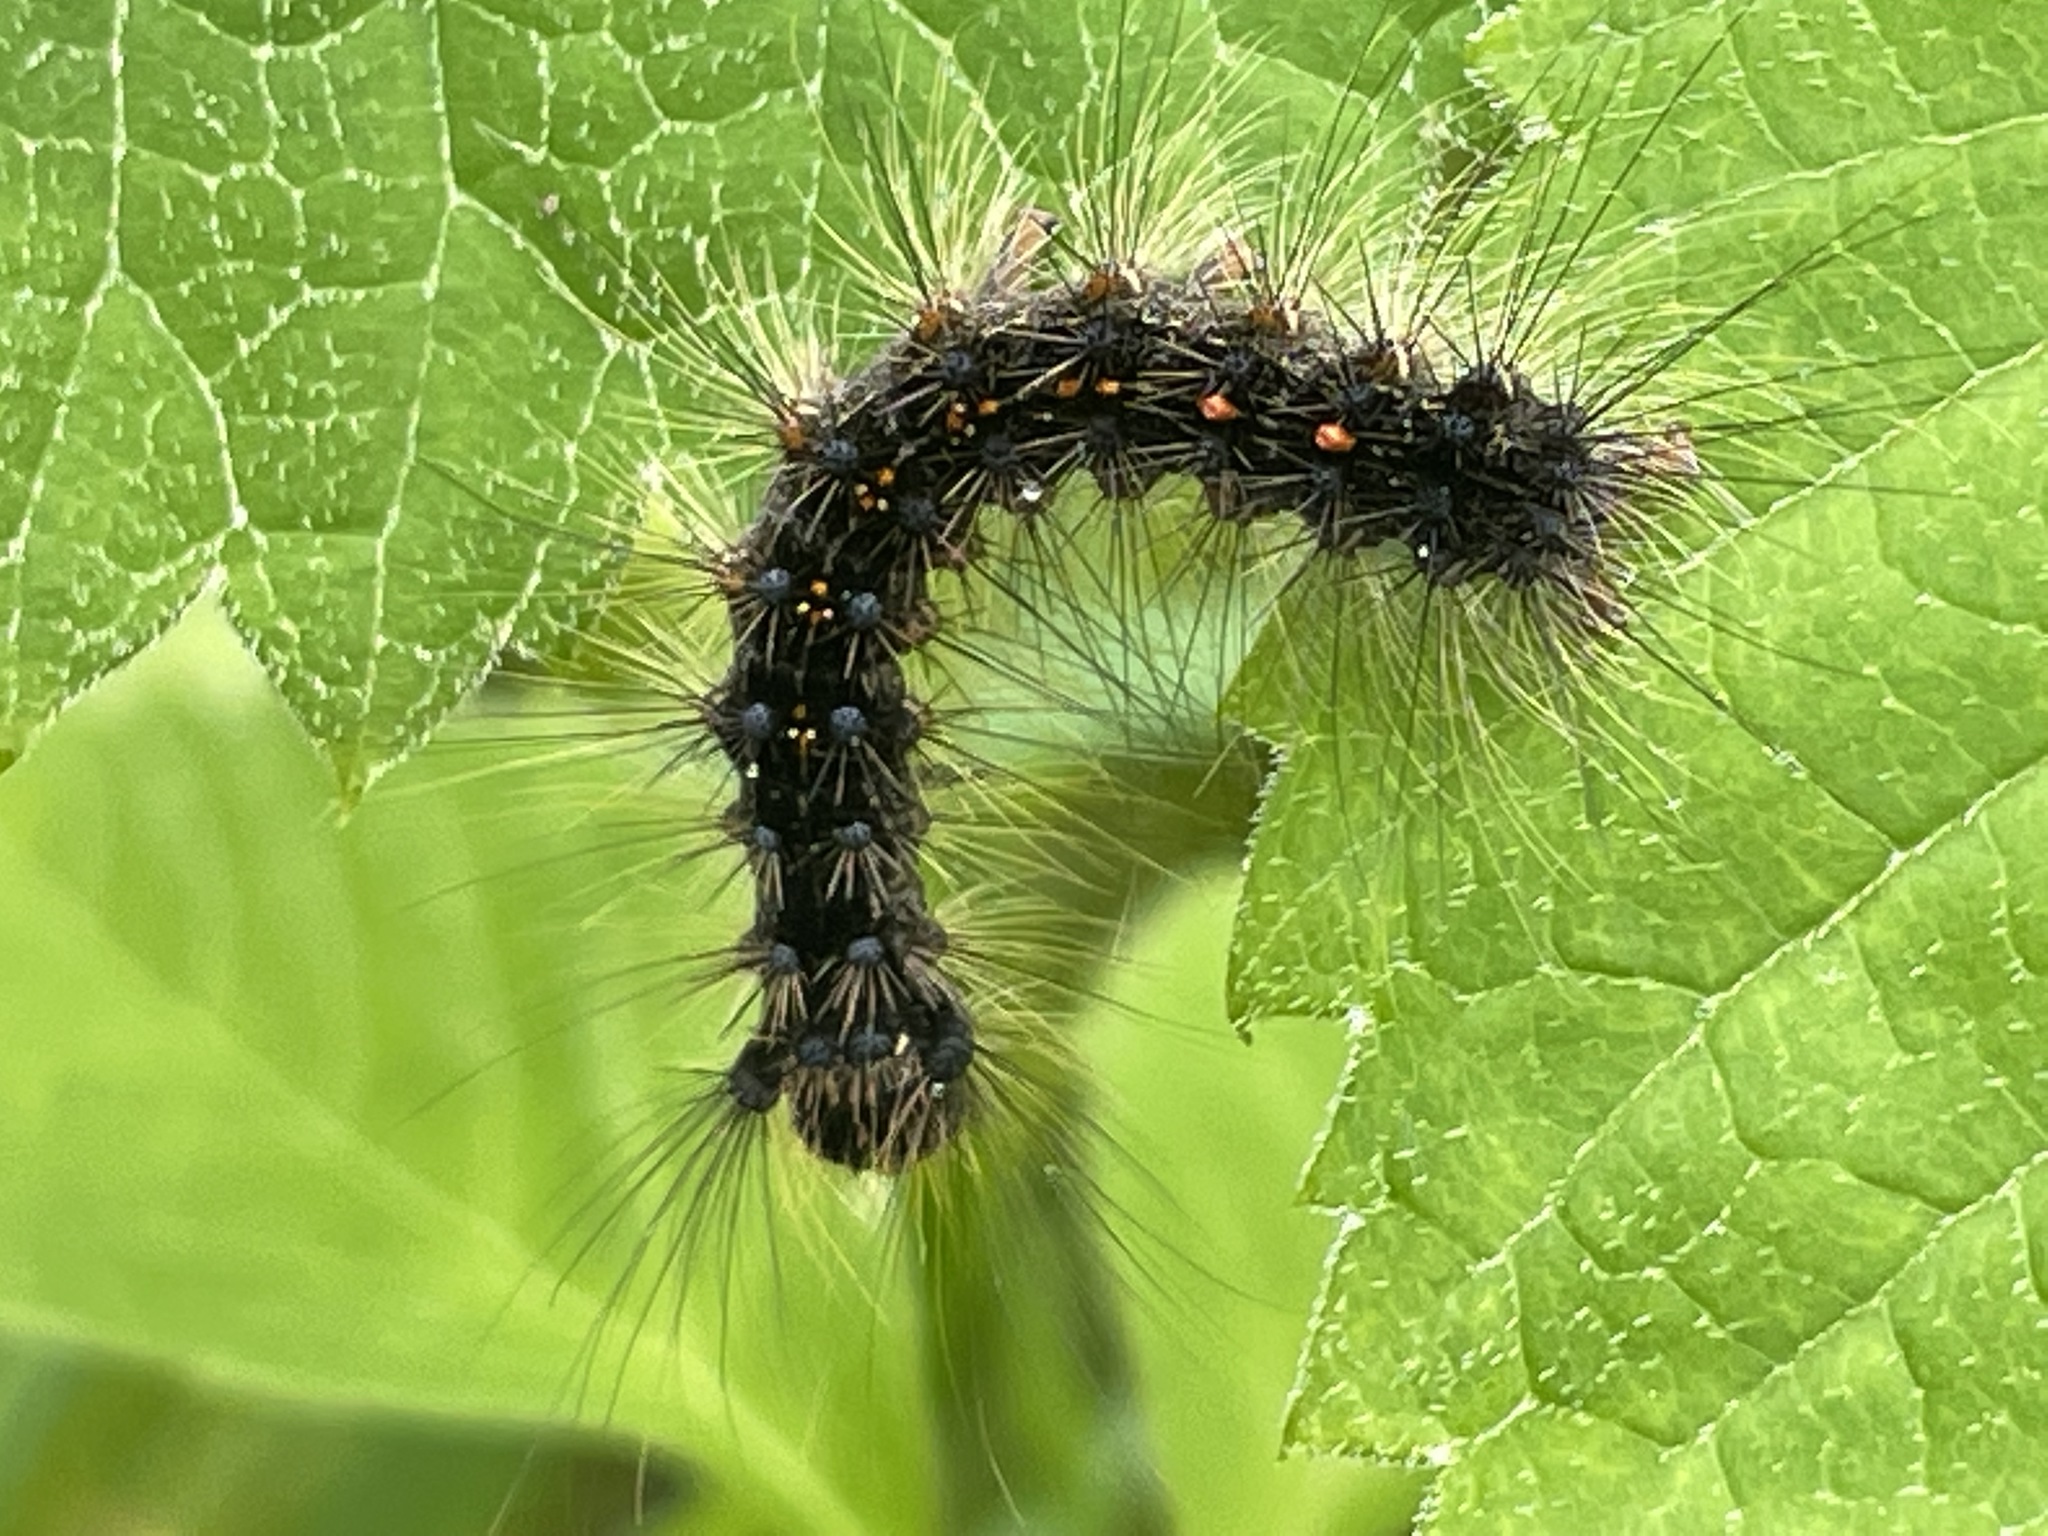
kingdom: Animalia
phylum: Arthropoda
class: Insecta
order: Lepidoptera
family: Erebidae
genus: Lymantria
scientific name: Lymantria dispar
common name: Gypsy moth
